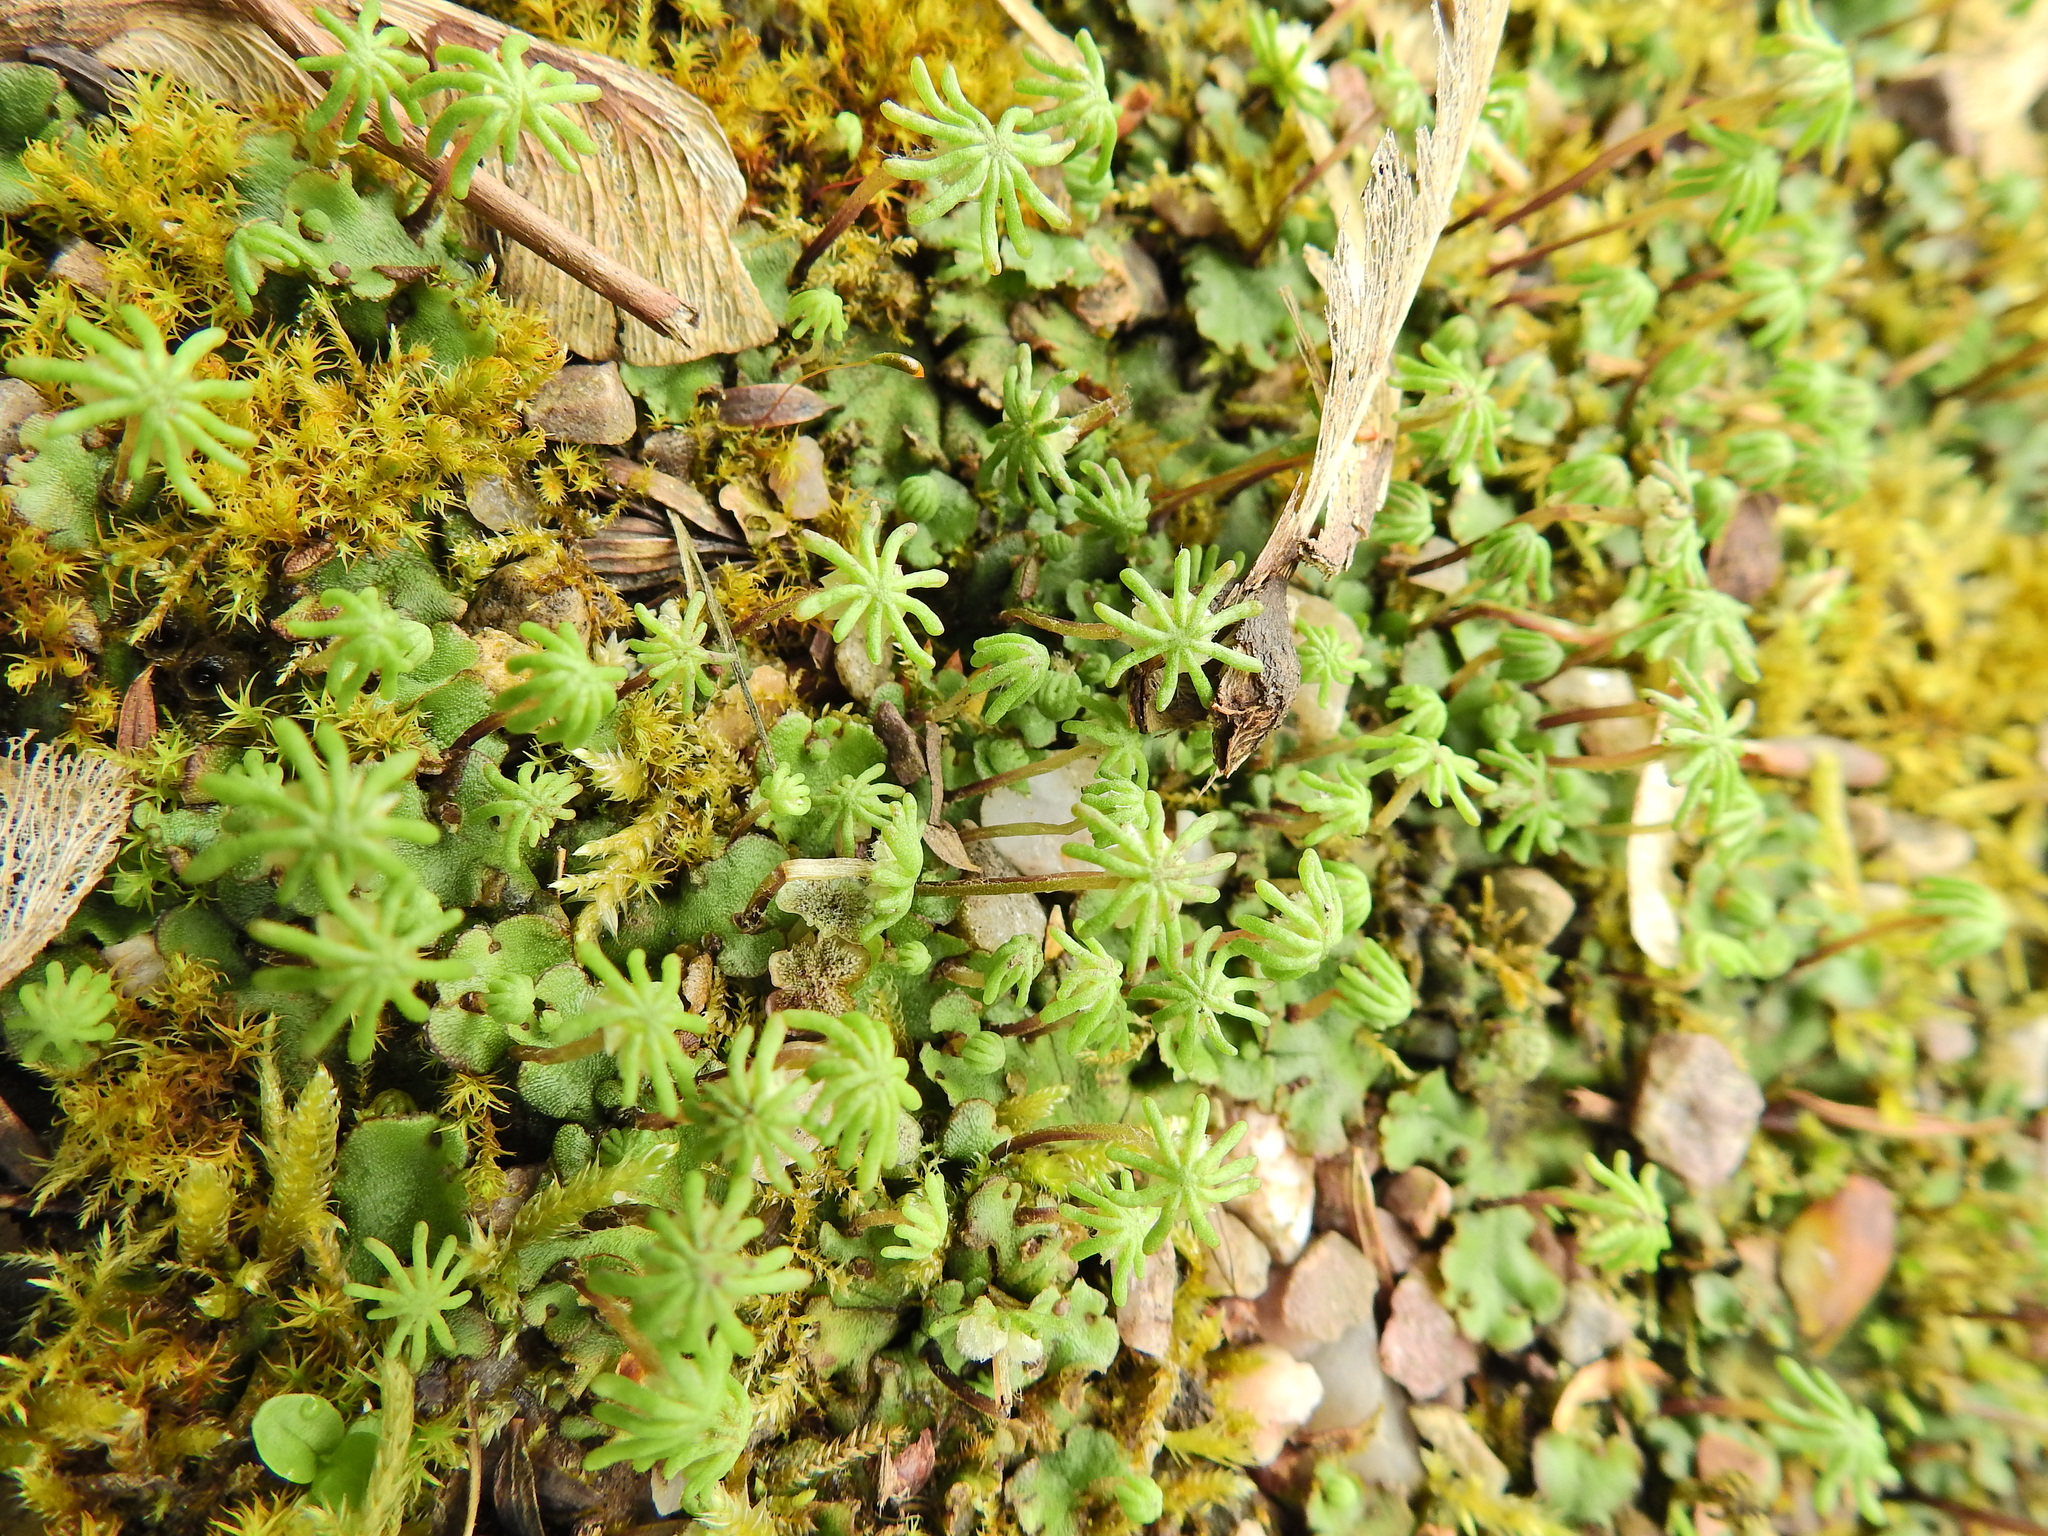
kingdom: Plantae
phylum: Marchantiophyta
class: Marchantiopsida
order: Marchantiales
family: Marchantiaceae
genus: Marchantia
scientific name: Marchantia polymorpha
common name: Common liverwort
